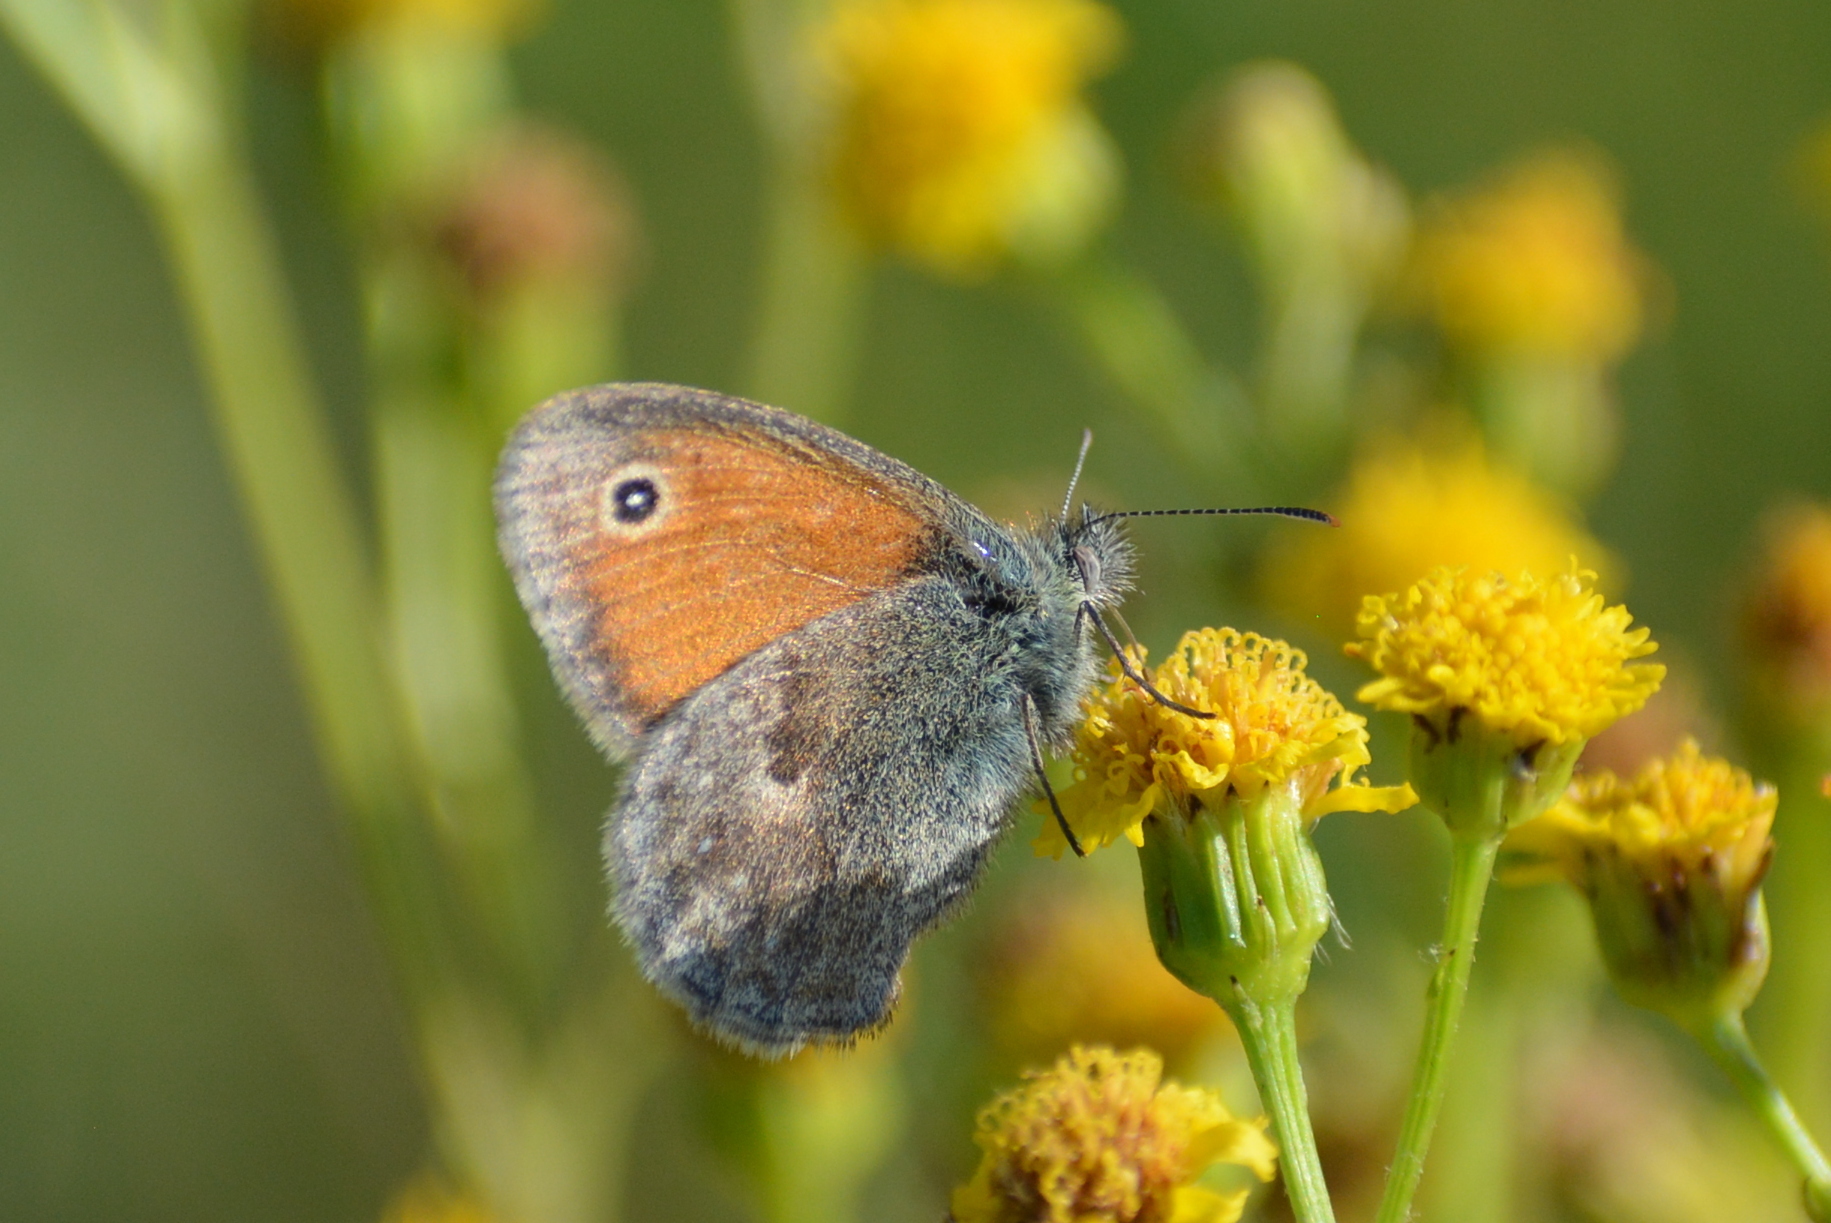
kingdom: Animalia
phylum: Arthropoda
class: Insecta
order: Lepidoptera
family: Nymphalidae
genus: Coenonympha
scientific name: Coenonympha pamphilus
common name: Small heath
